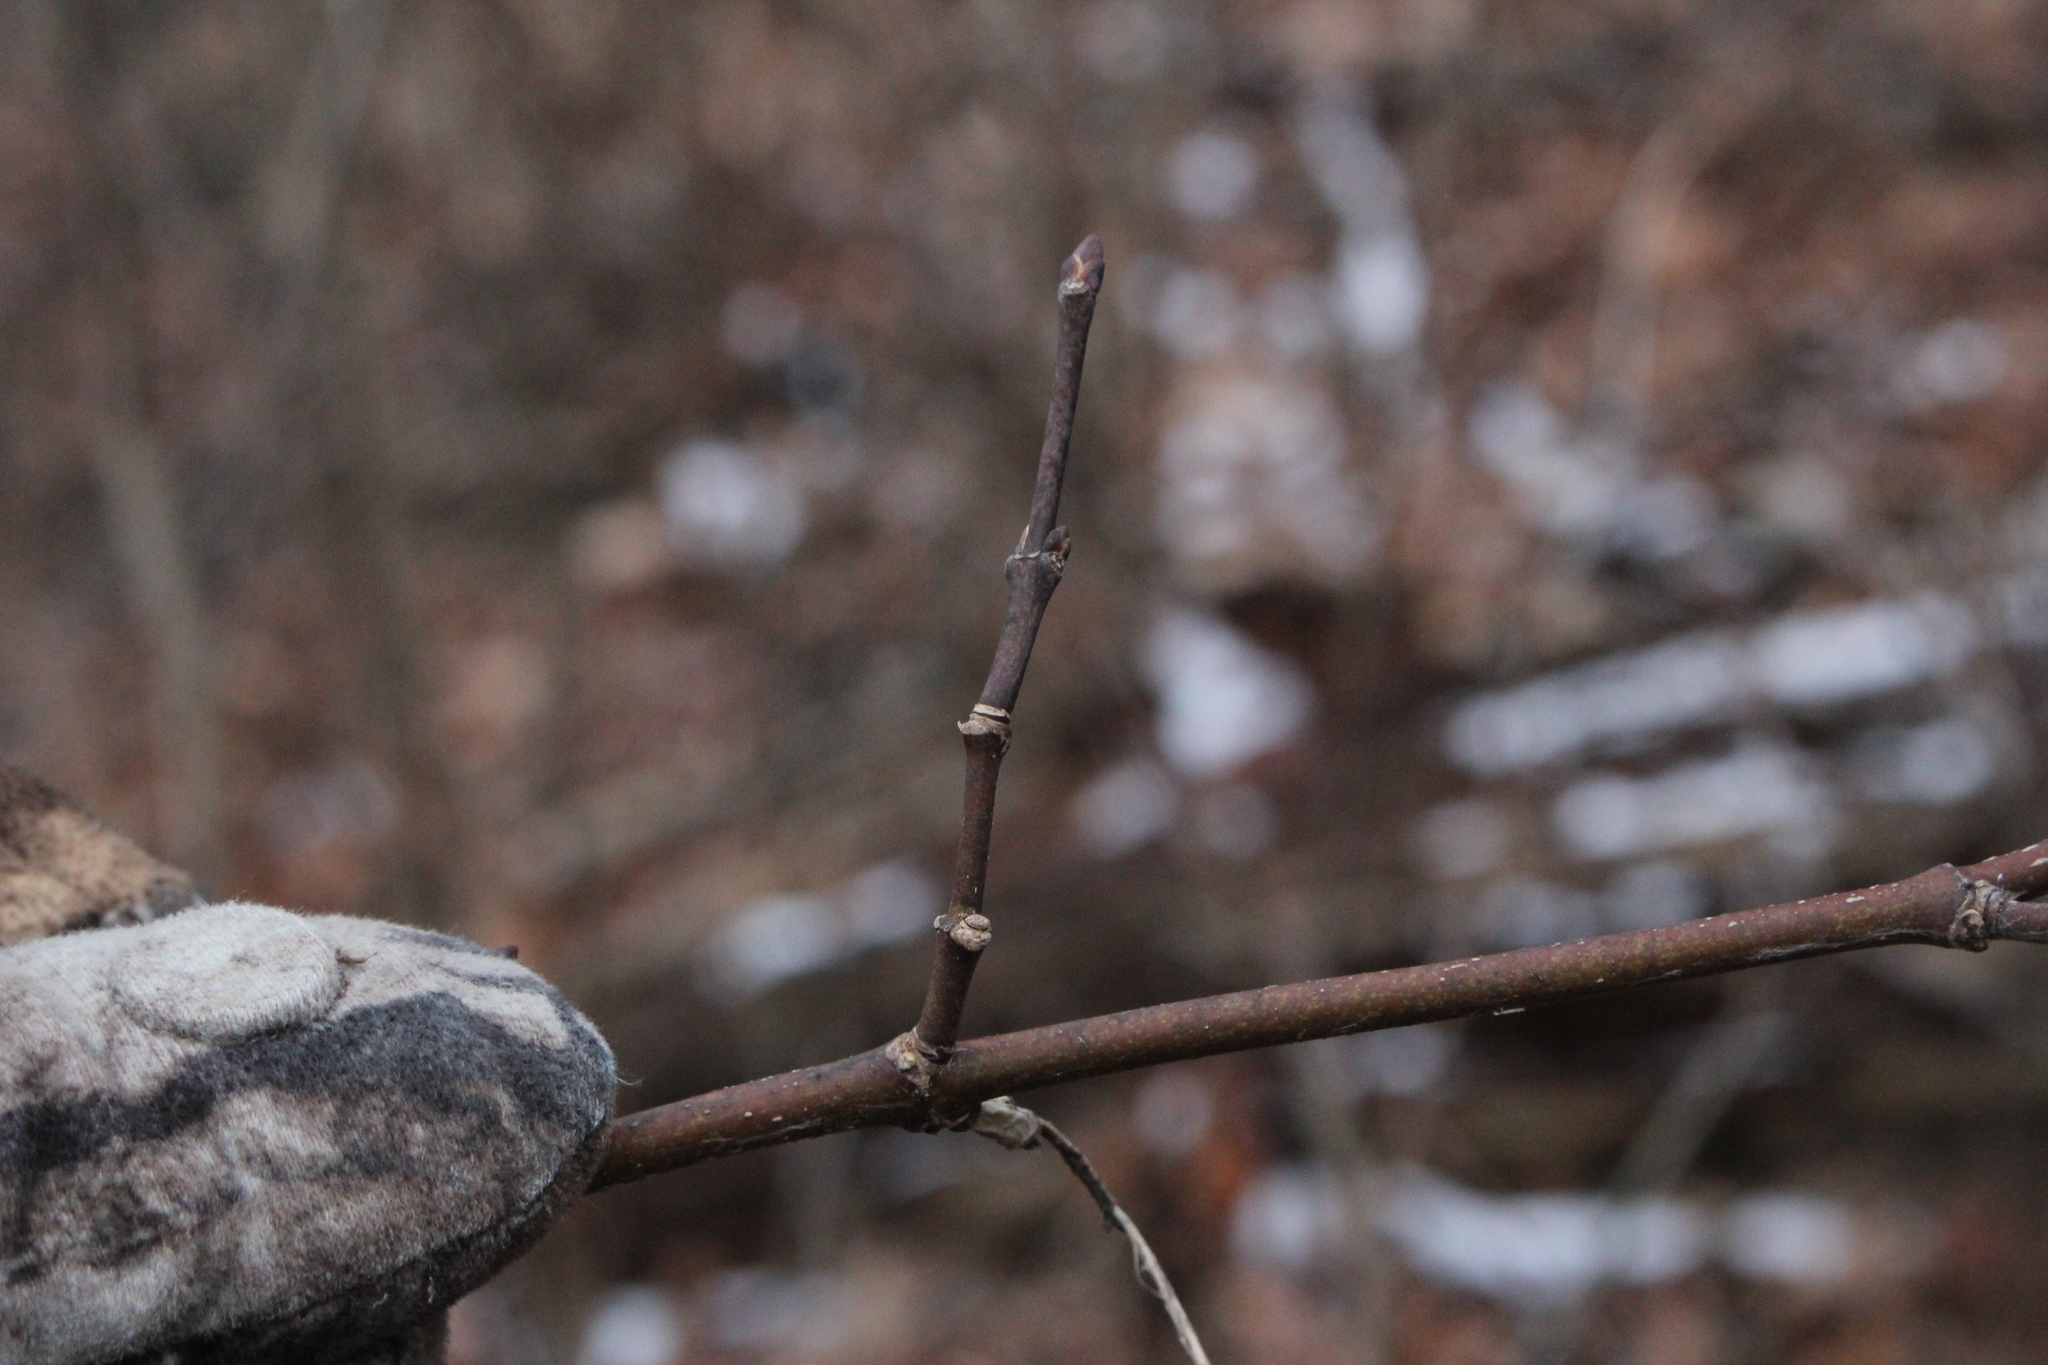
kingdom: Plantae
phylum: Tracheophyta
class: Magnoliopsida
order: Crossosomatales
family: Staphyleaceae
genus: Staphylea
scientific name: Staphylea trifolia
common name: American bladdernut
